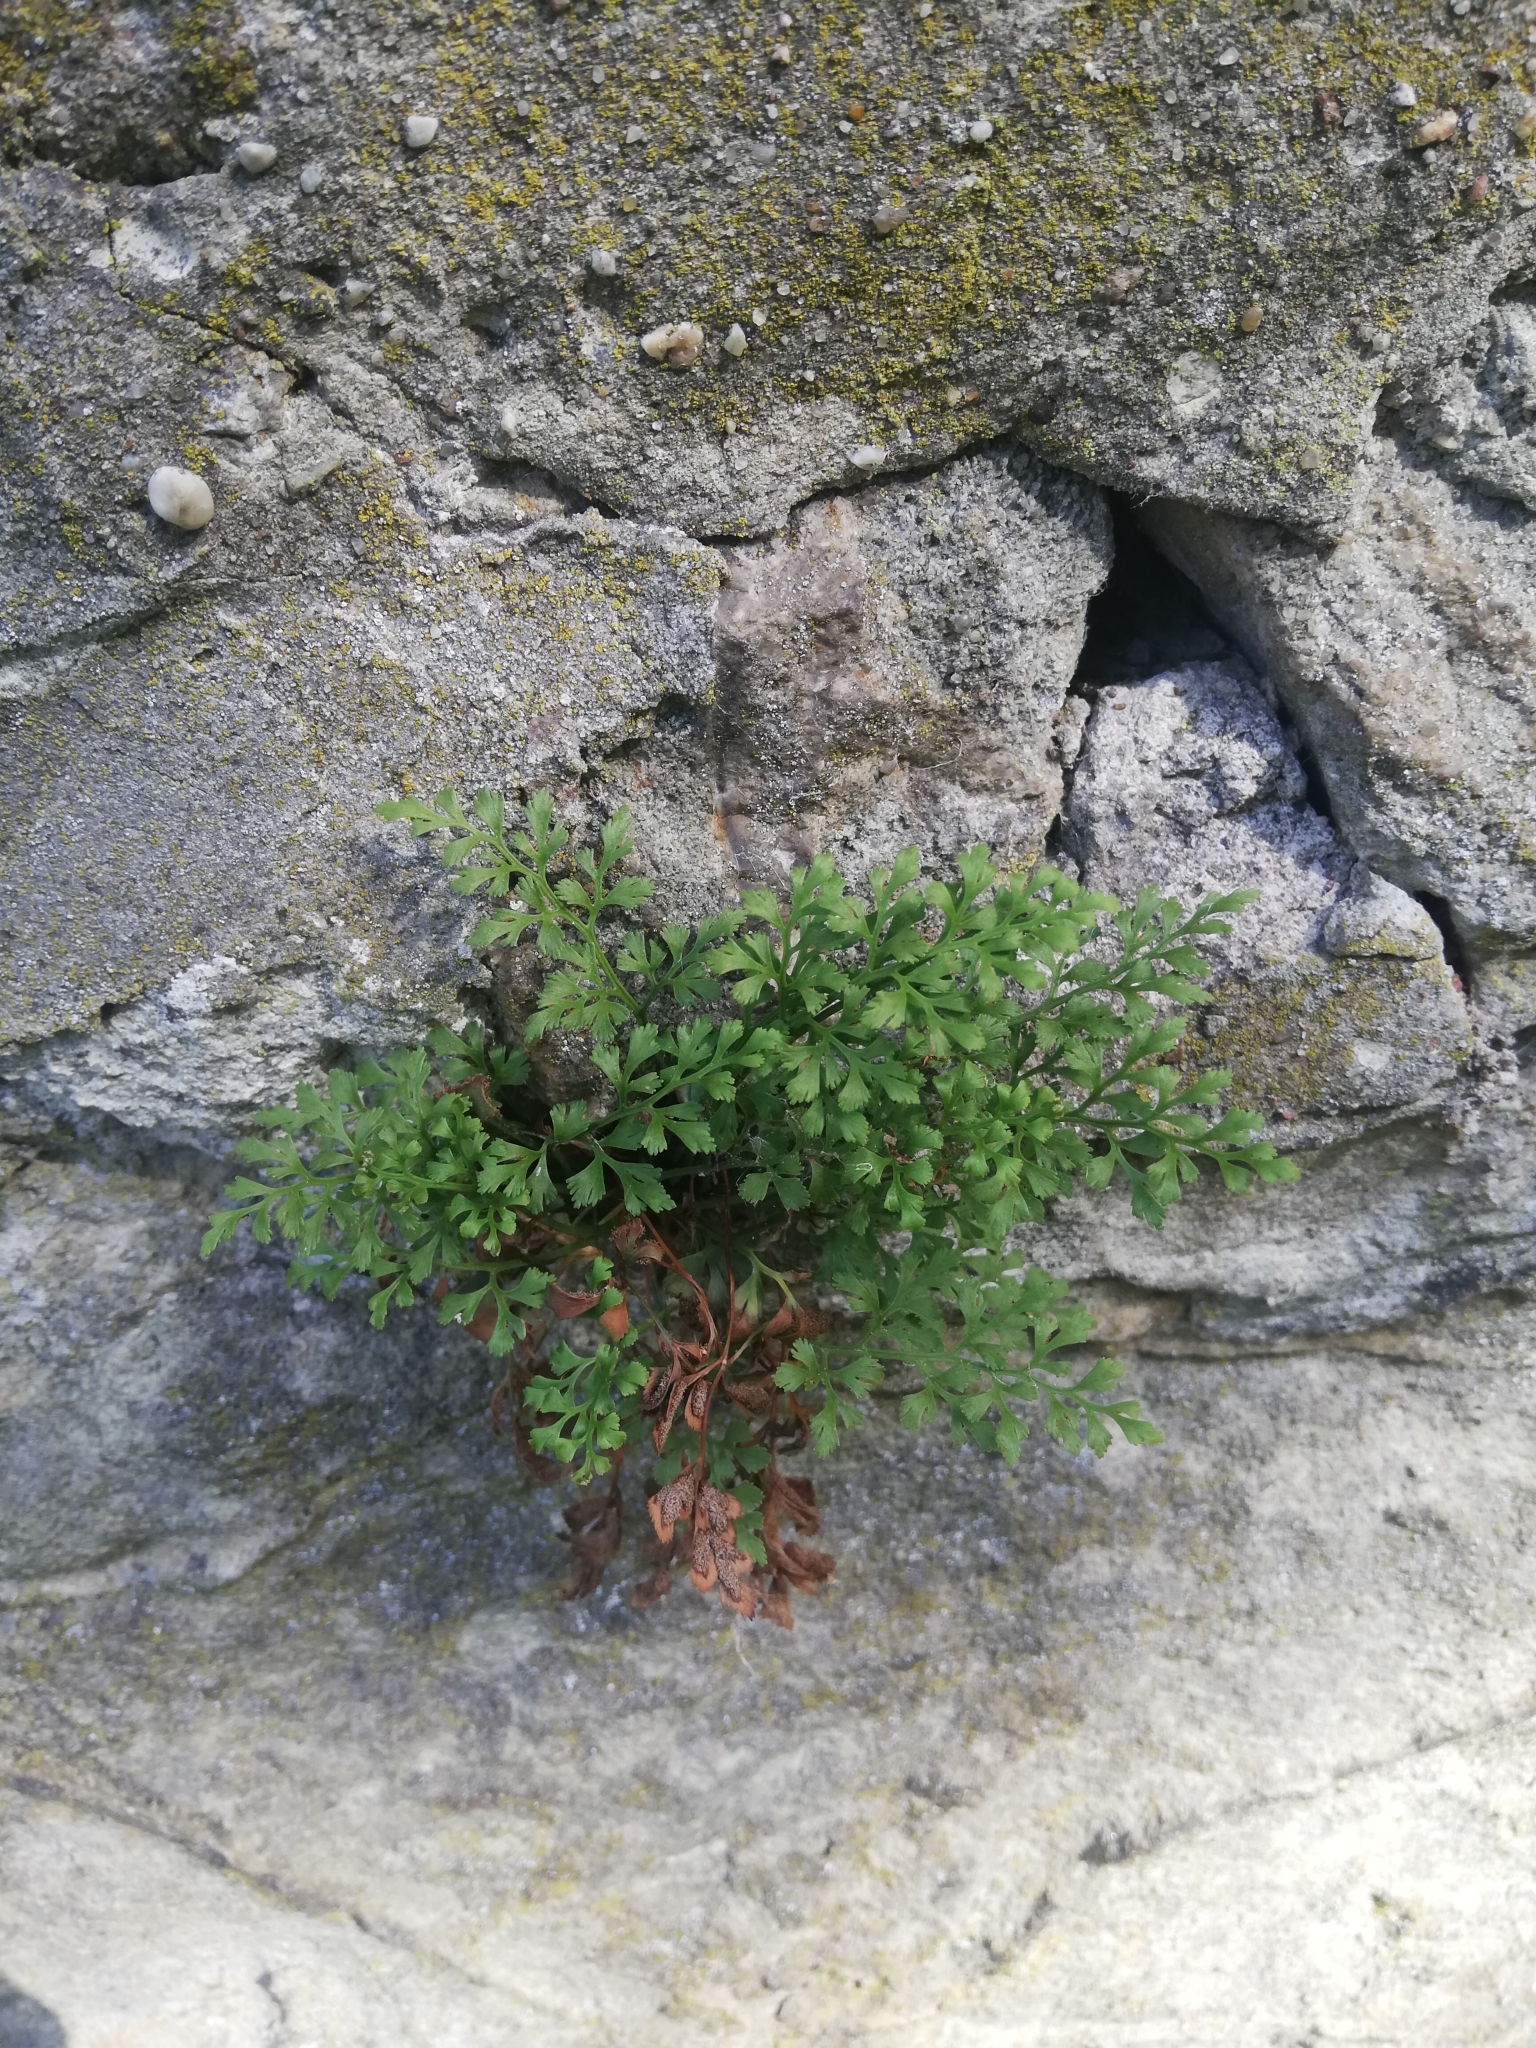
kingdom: Plantae
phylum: Tracheophyta
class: Polypodiopsida
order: Polypodiales
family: Aspleniaceae
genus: Asplenium
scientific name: Asplenium ruta-muraria
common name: Wall-rue
